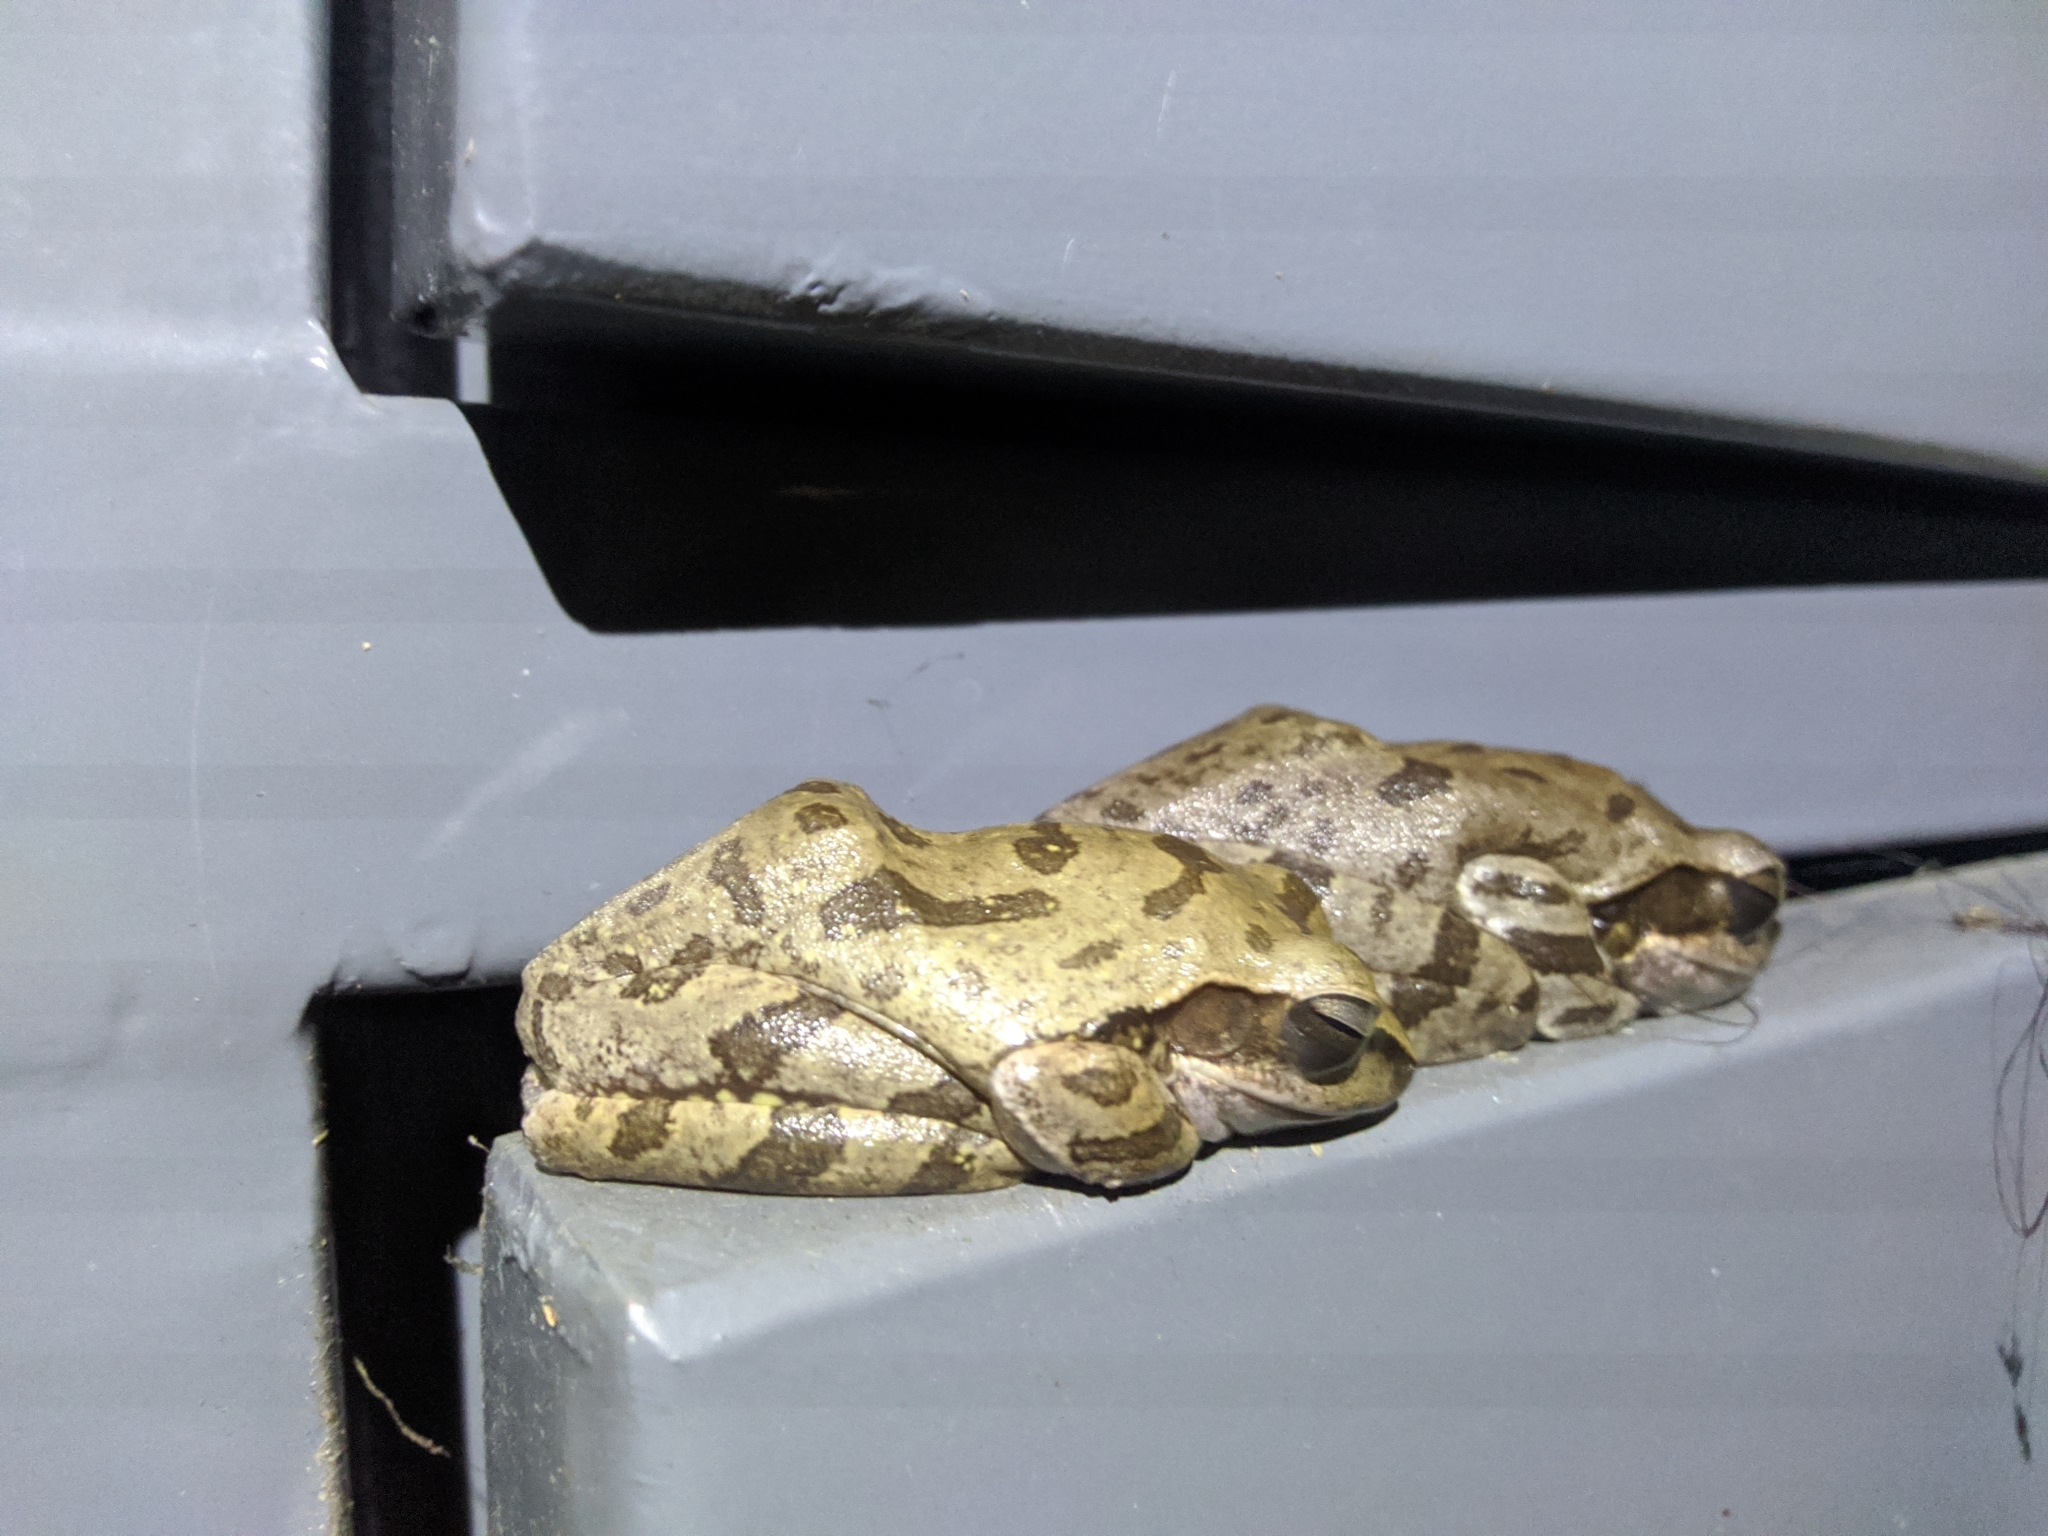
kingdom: Animalia
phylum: Chordata
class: Amphibia
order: Anura
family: Rhacophoridae
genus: Polypedates
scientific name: Polypedates maculatus
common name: Himalayan tree frog
